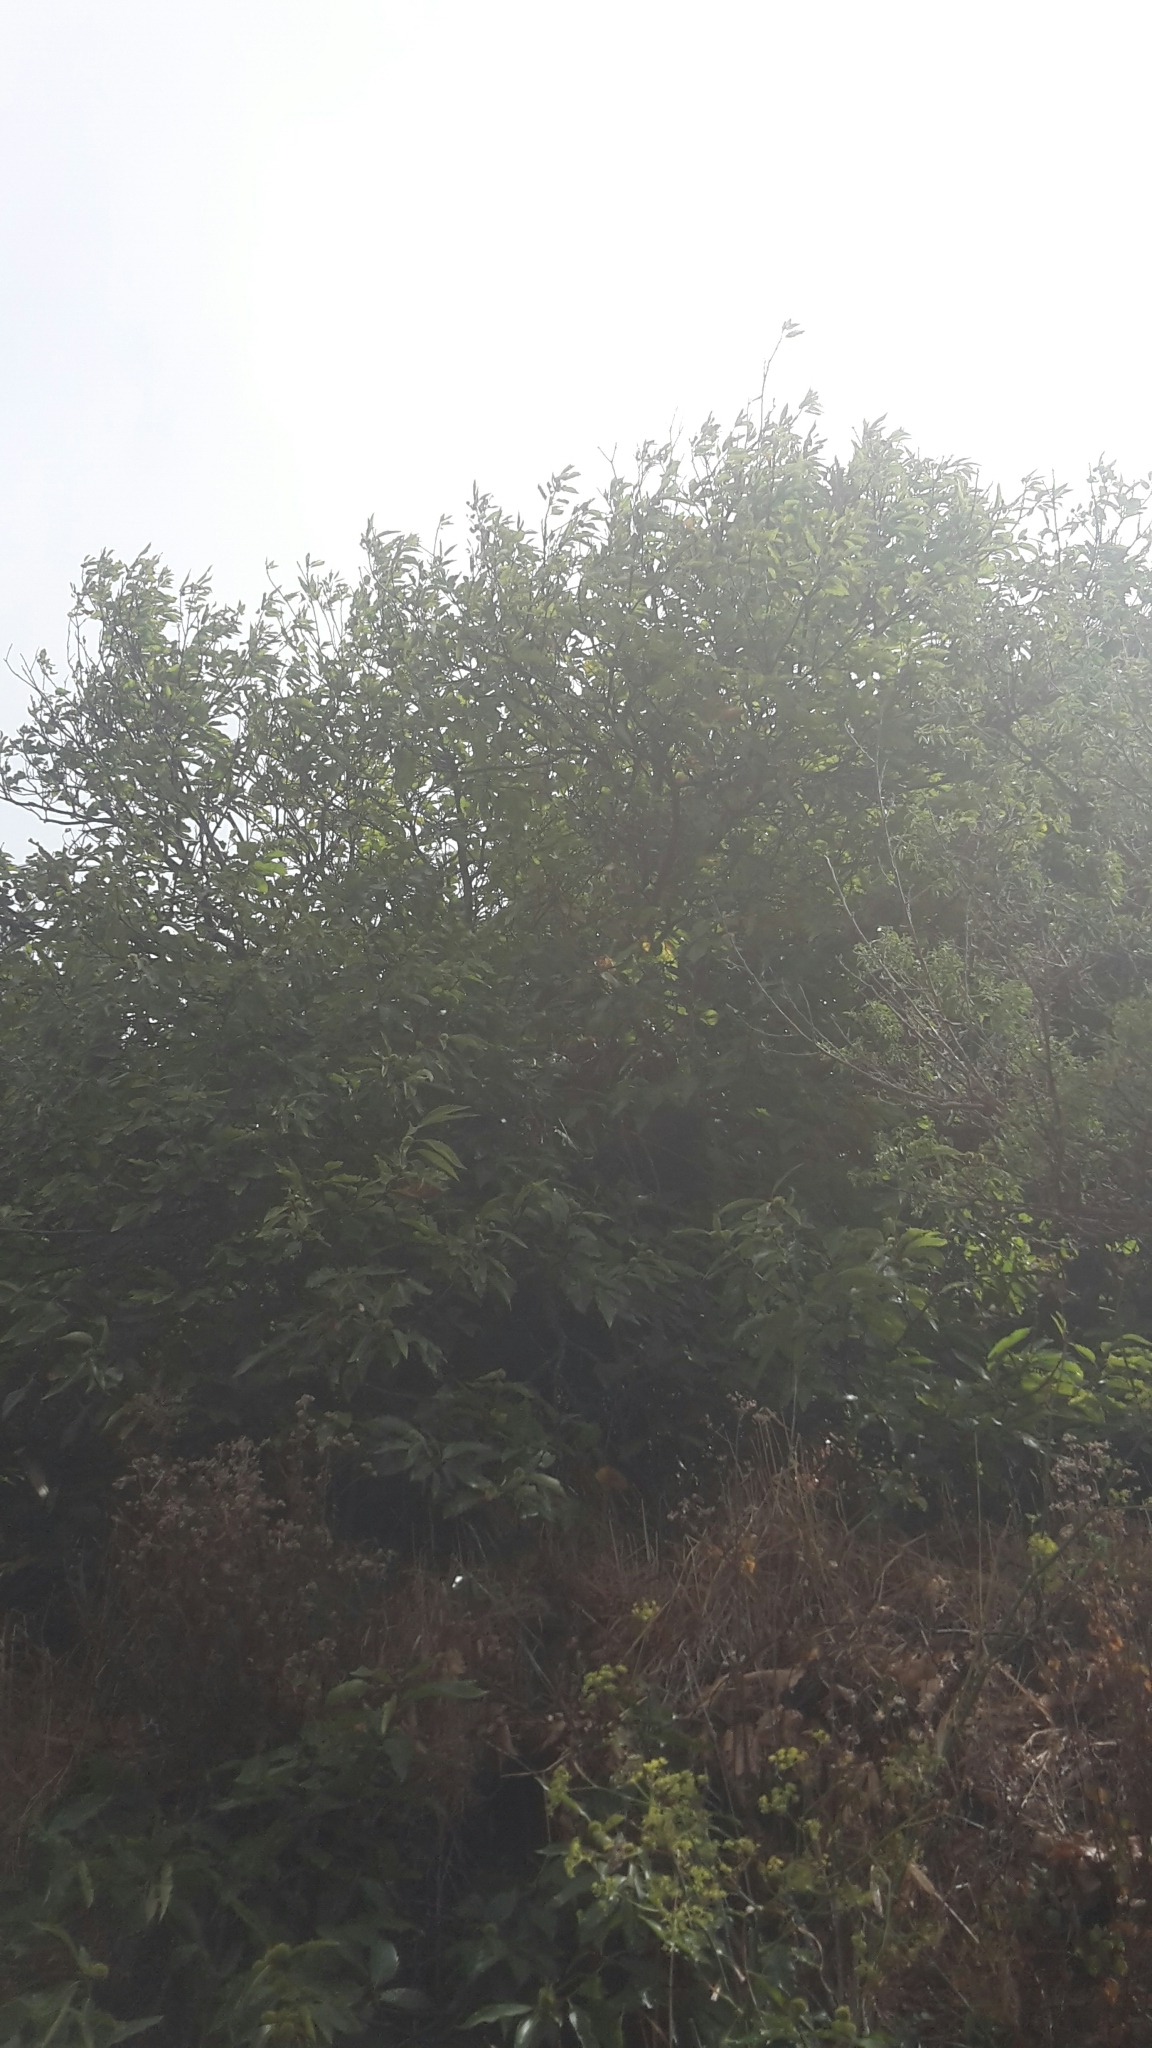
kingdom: Plantae
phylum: Tracheophyta
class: Magnoliopsida
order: Fagales
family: Fagaceae
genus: Castanea
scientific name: Castanea sativa
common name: Sweet chestnut
